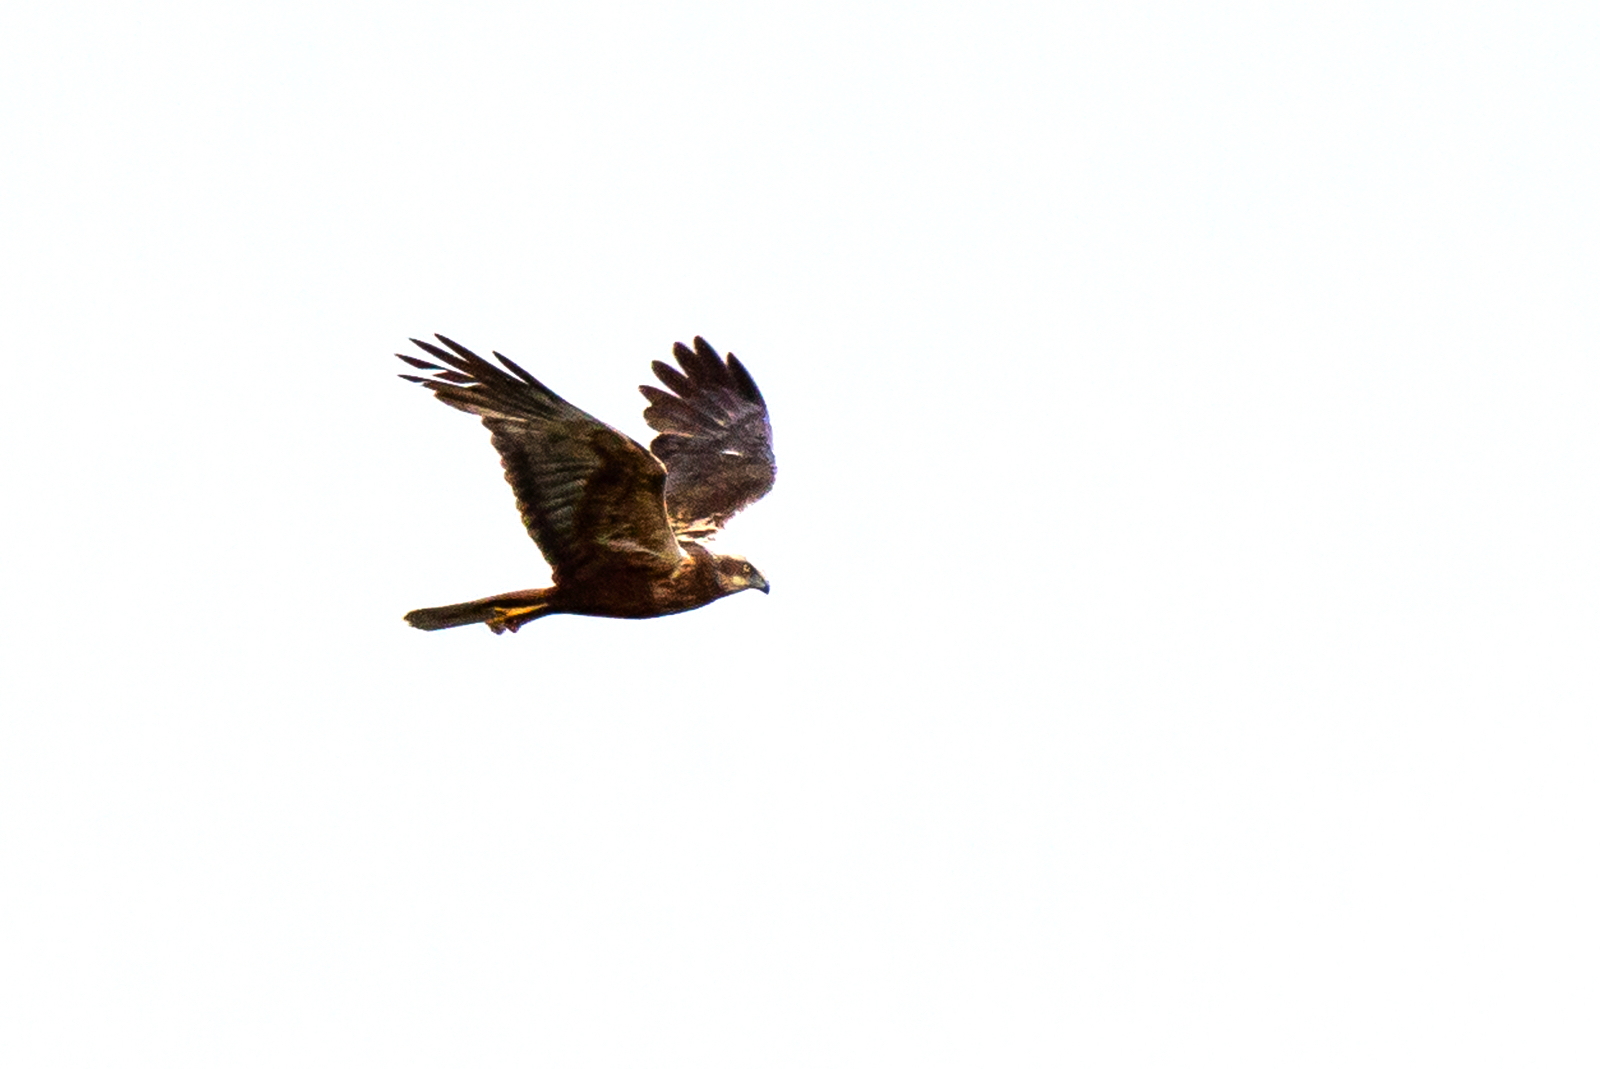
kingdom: Animalia
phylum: Chordata
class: Aves
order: Accipitriformes
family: Accipitridae
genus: Circus
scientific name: Circus aeruginosus
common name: Western marsh harrier
